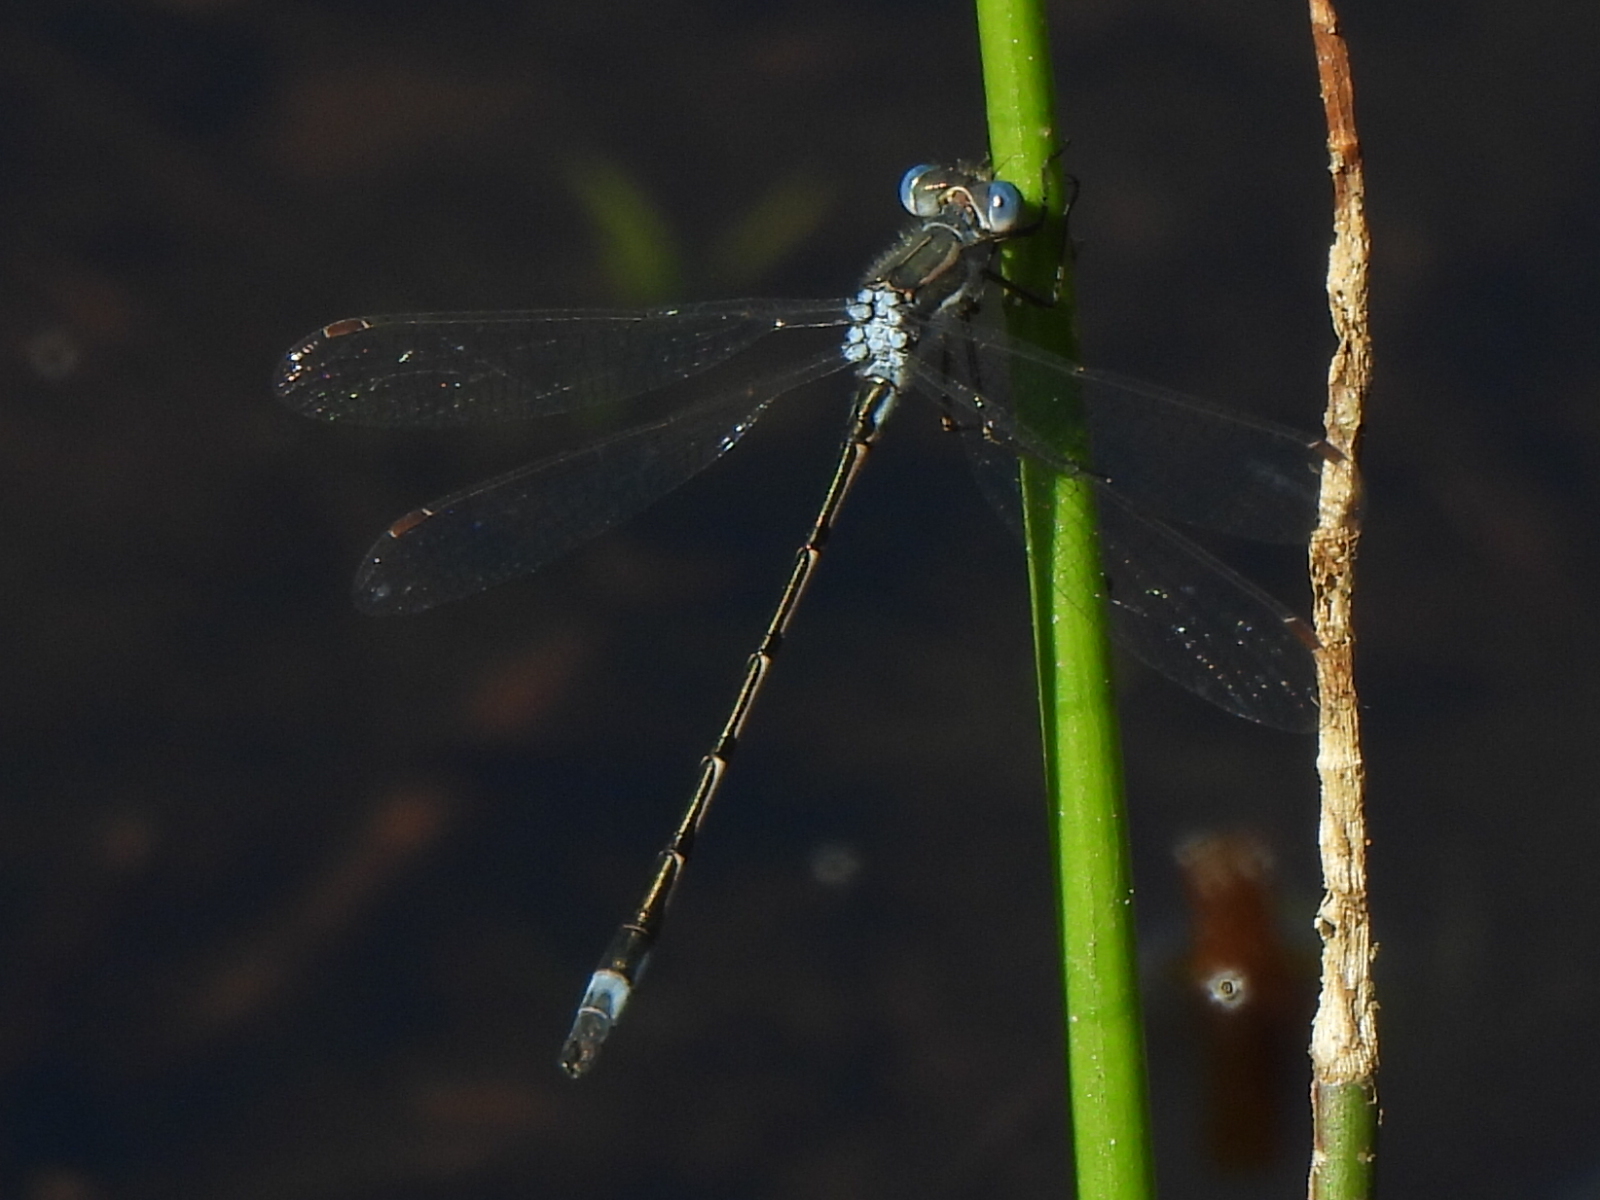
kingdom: Animalia
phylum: Arthropoda
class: Insecta
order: Odonata
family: Lestidae
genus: Lestes
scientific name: Lestes australis
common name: Southern spreadwing
